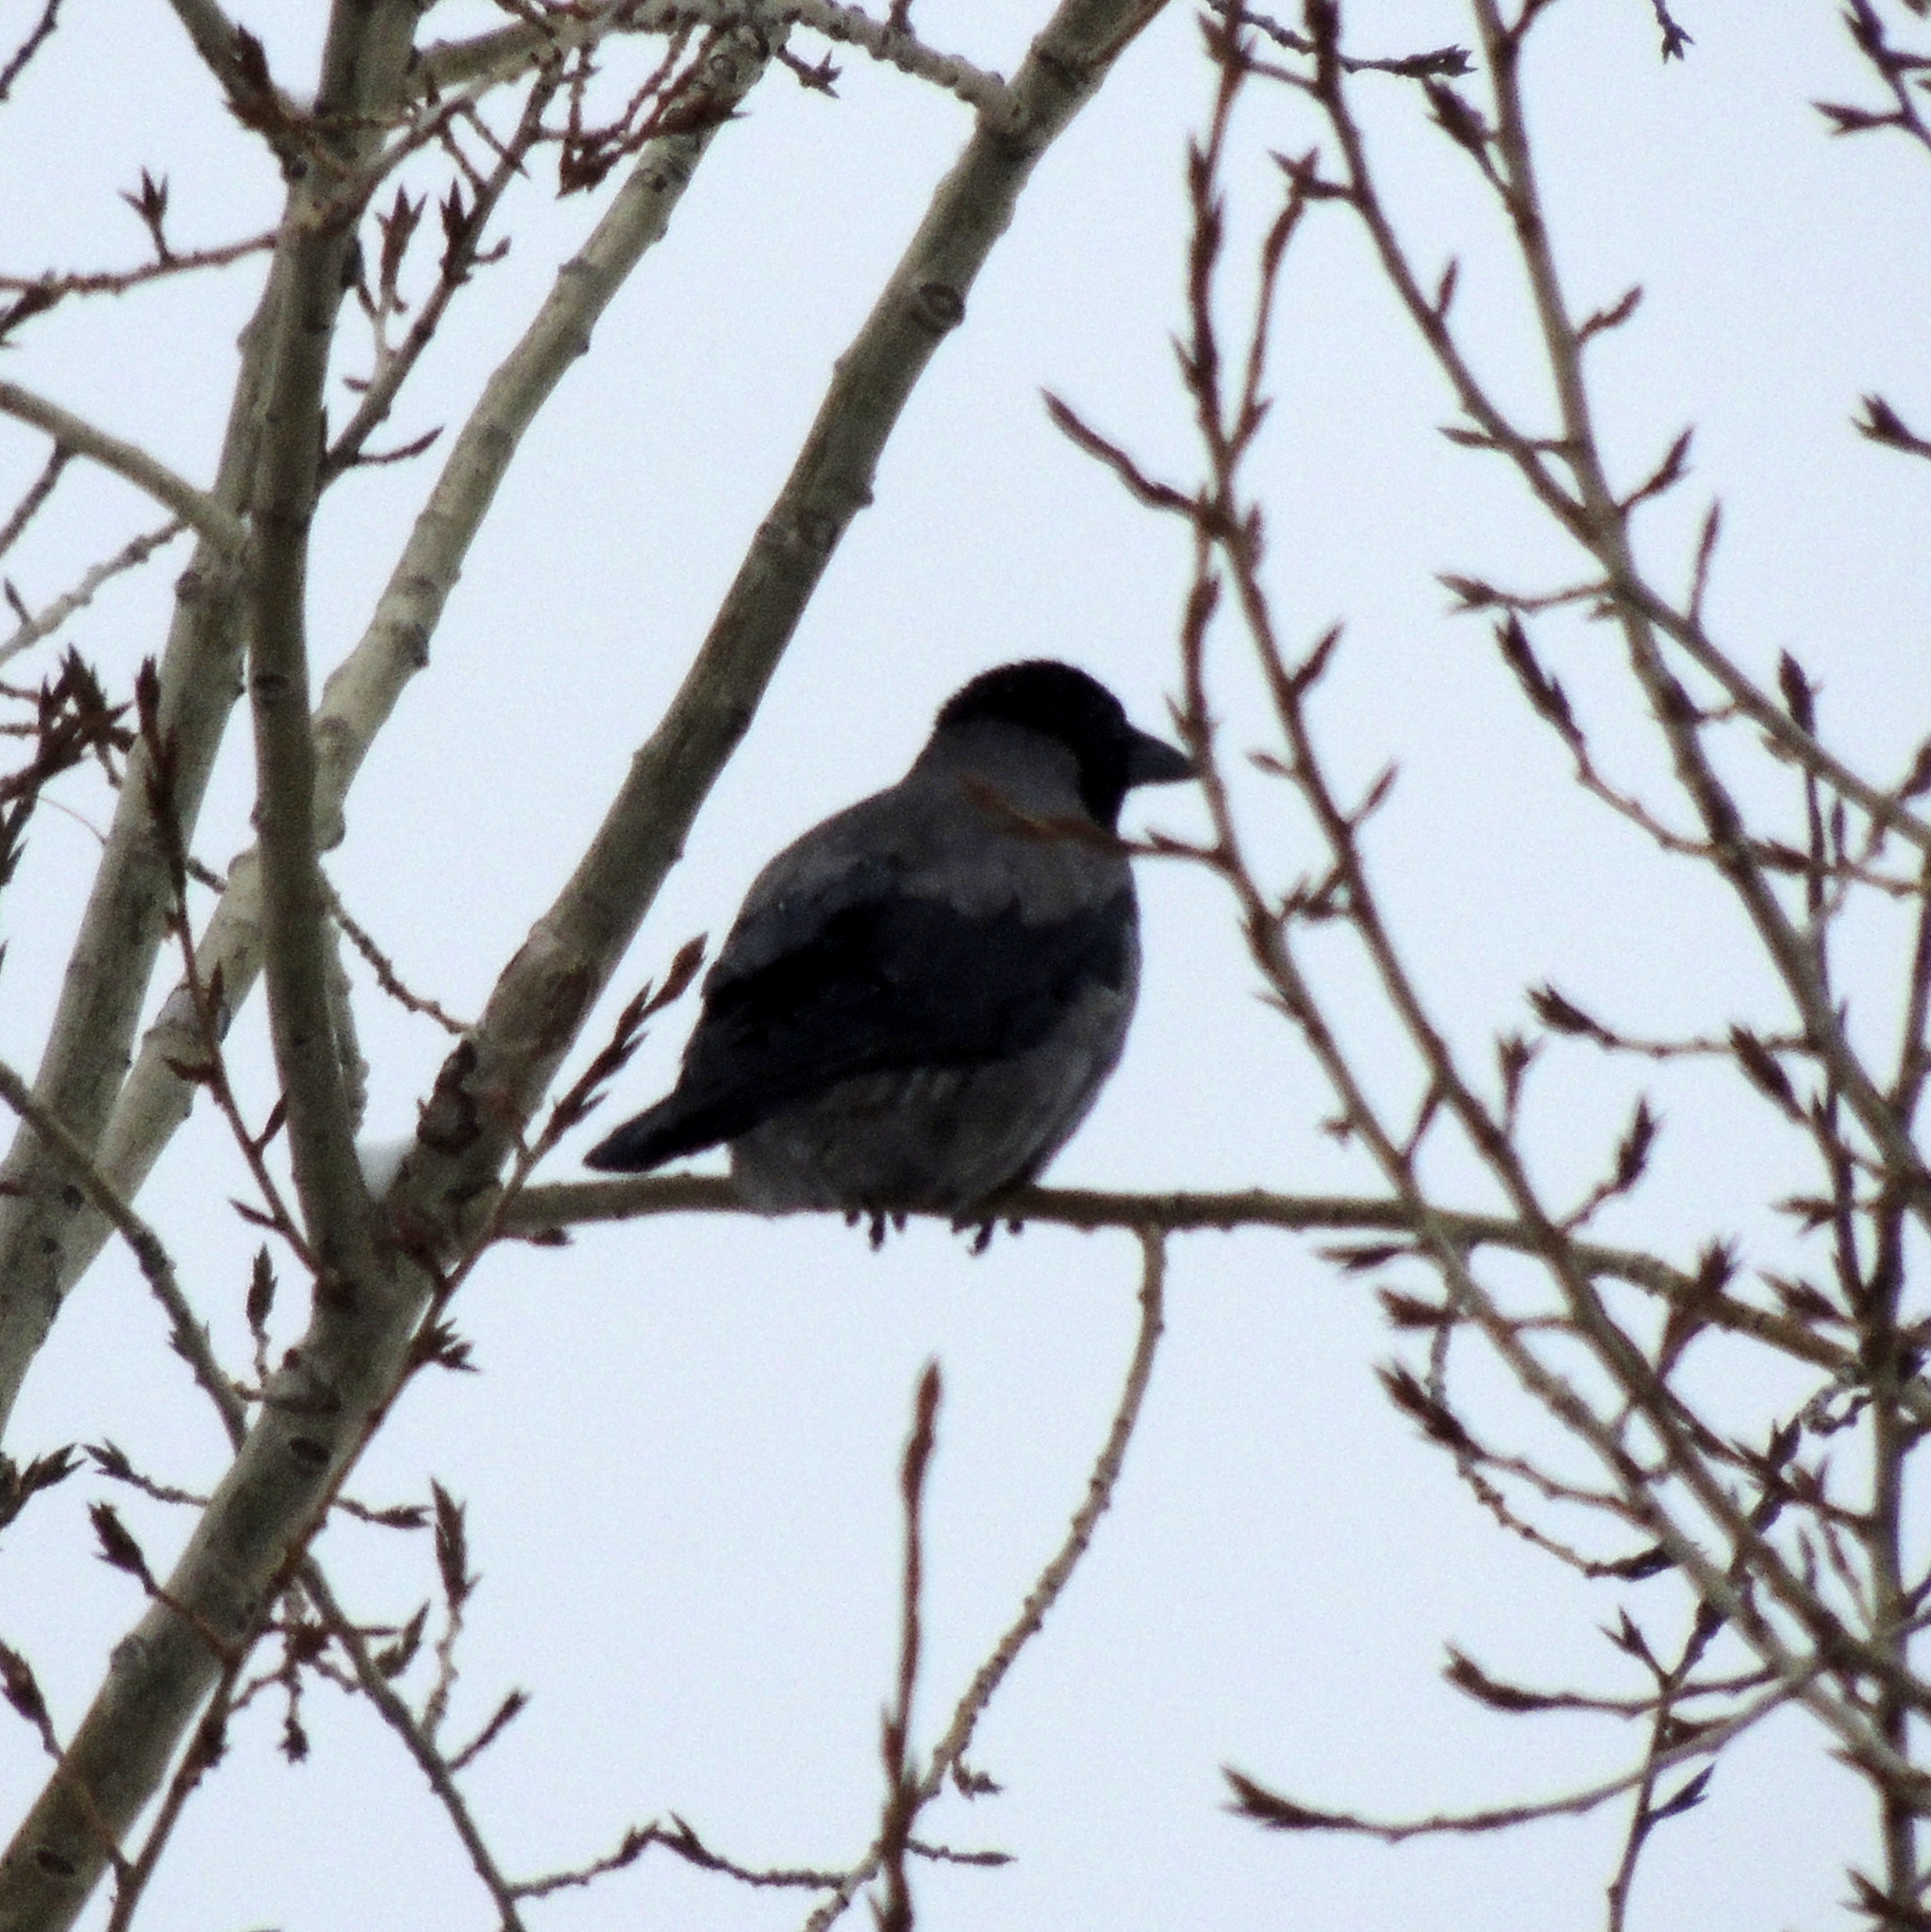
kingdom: Animalia
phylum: Chordata
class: Aves
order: Passeriformes
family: Corvidae
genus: Corvus
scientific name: Corvus cornix
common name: Hooded crow
